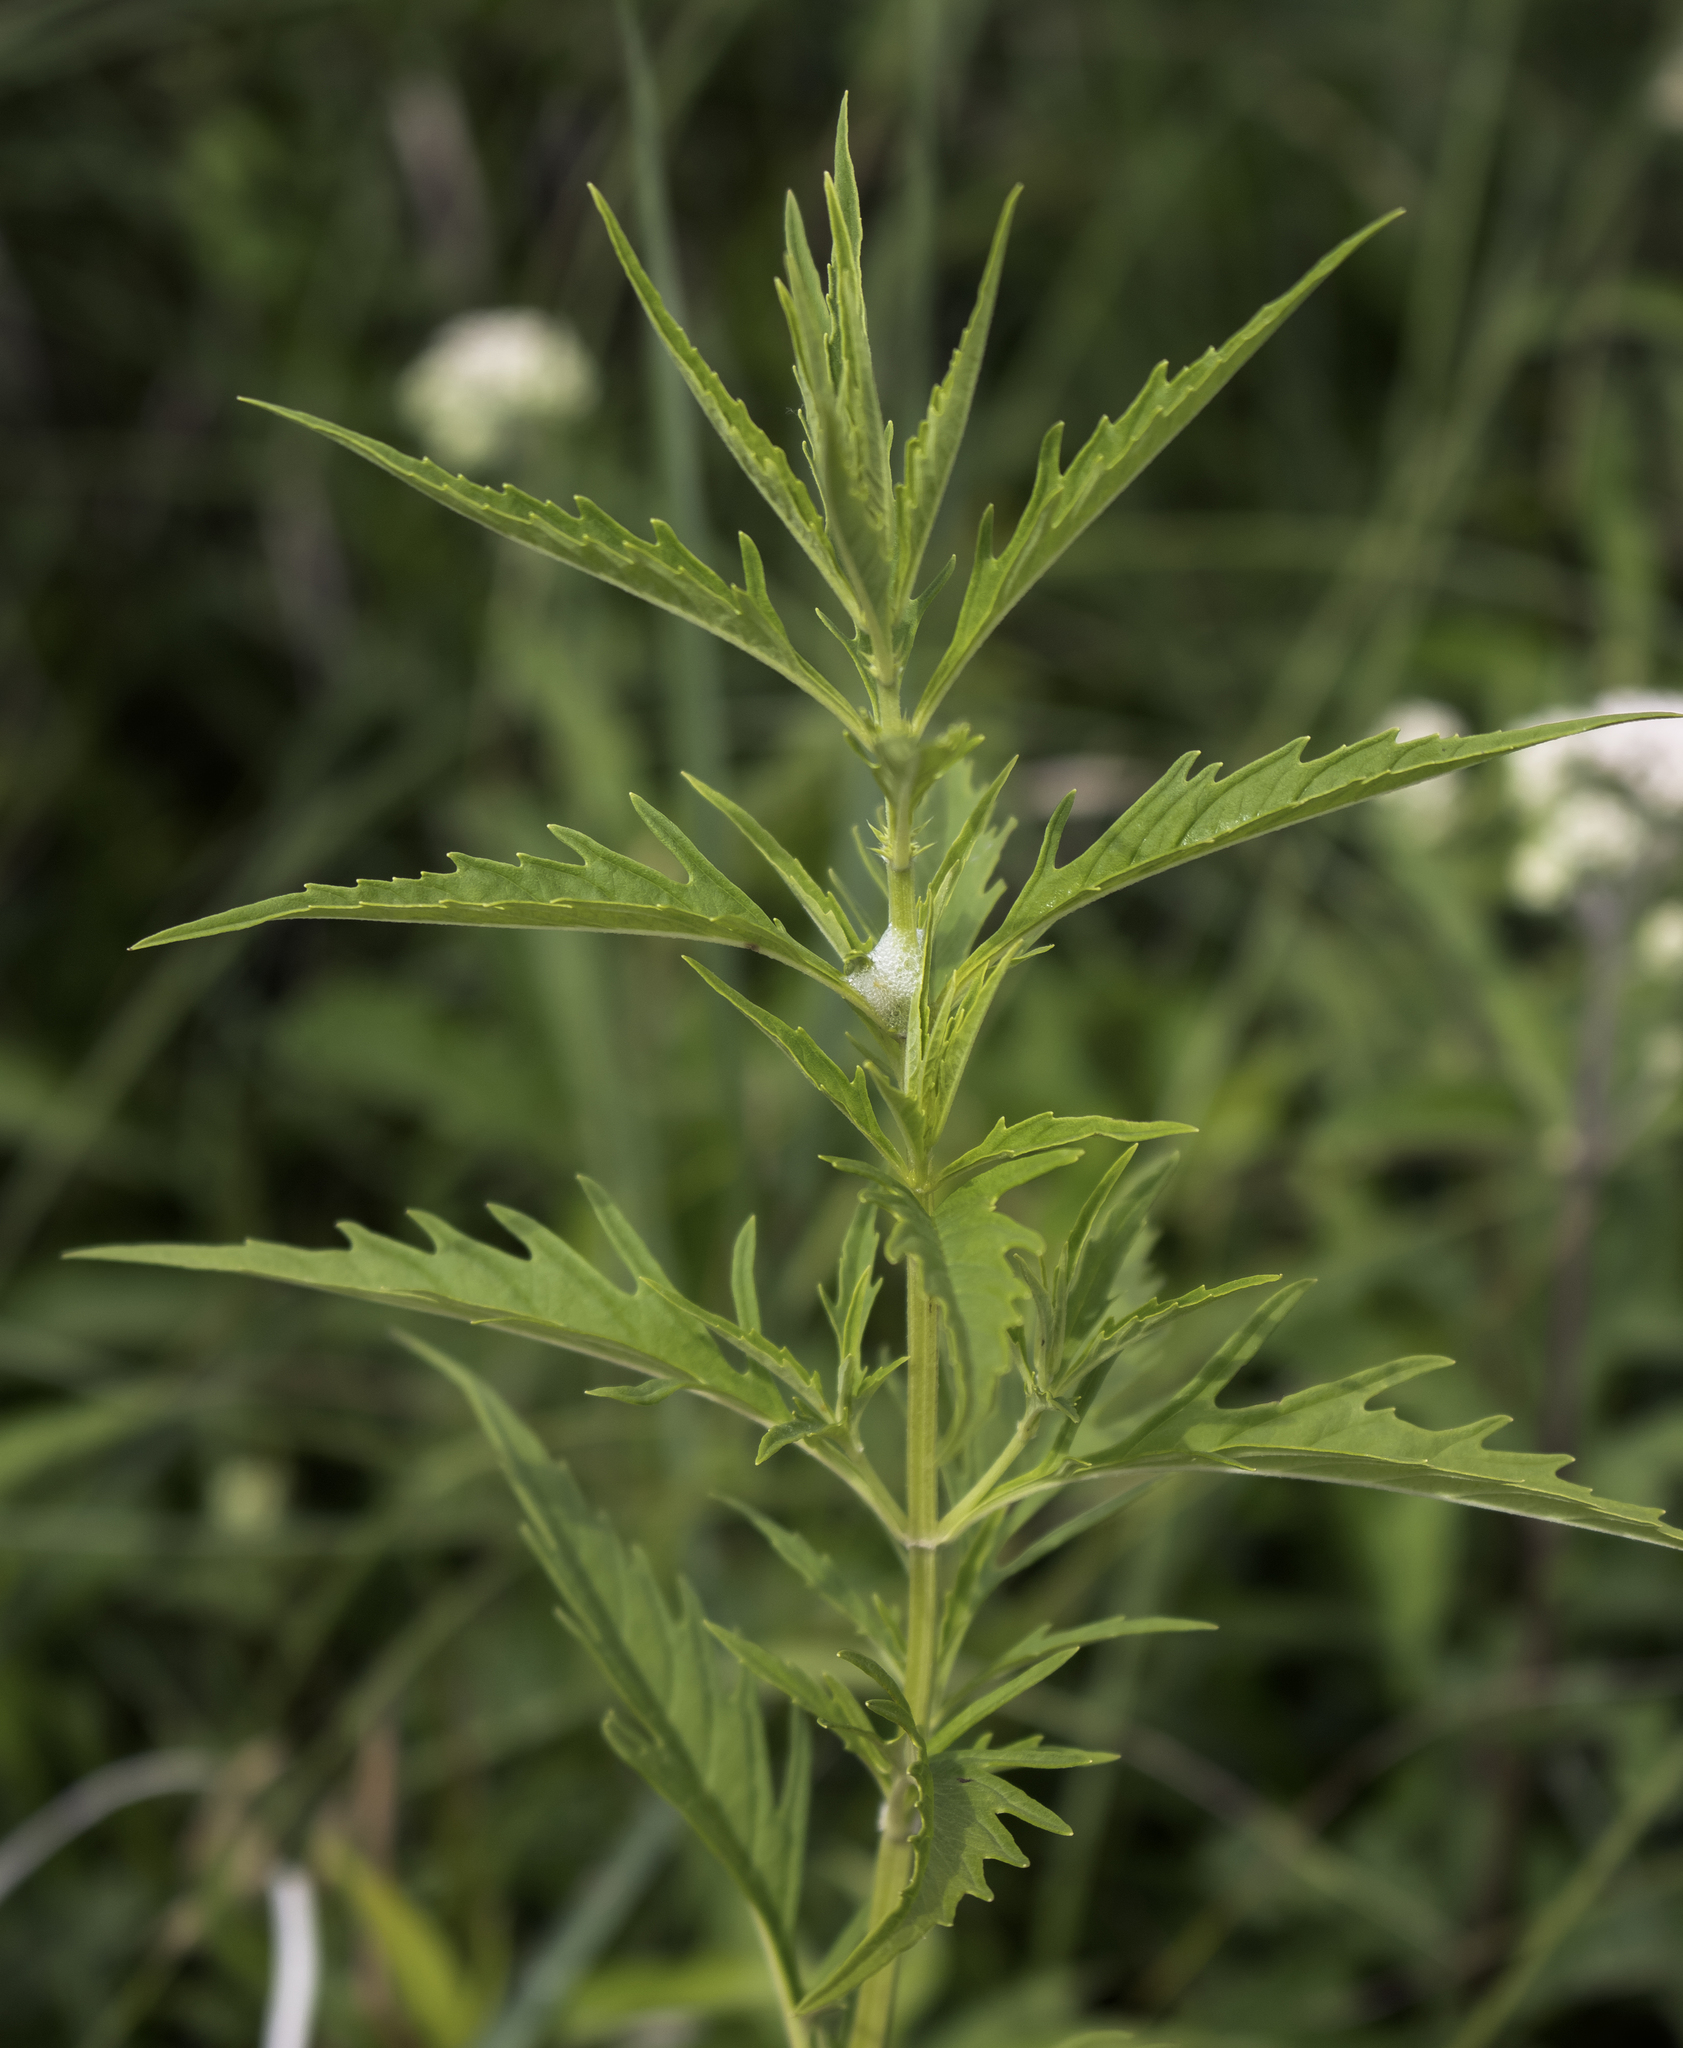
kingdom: Plantae
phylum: Tracheophyta
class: Magnoliopsida
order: Lamiales
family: Lamiaceae
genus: Lycopus
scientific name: Lycopus americanus
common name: American bugleweed
